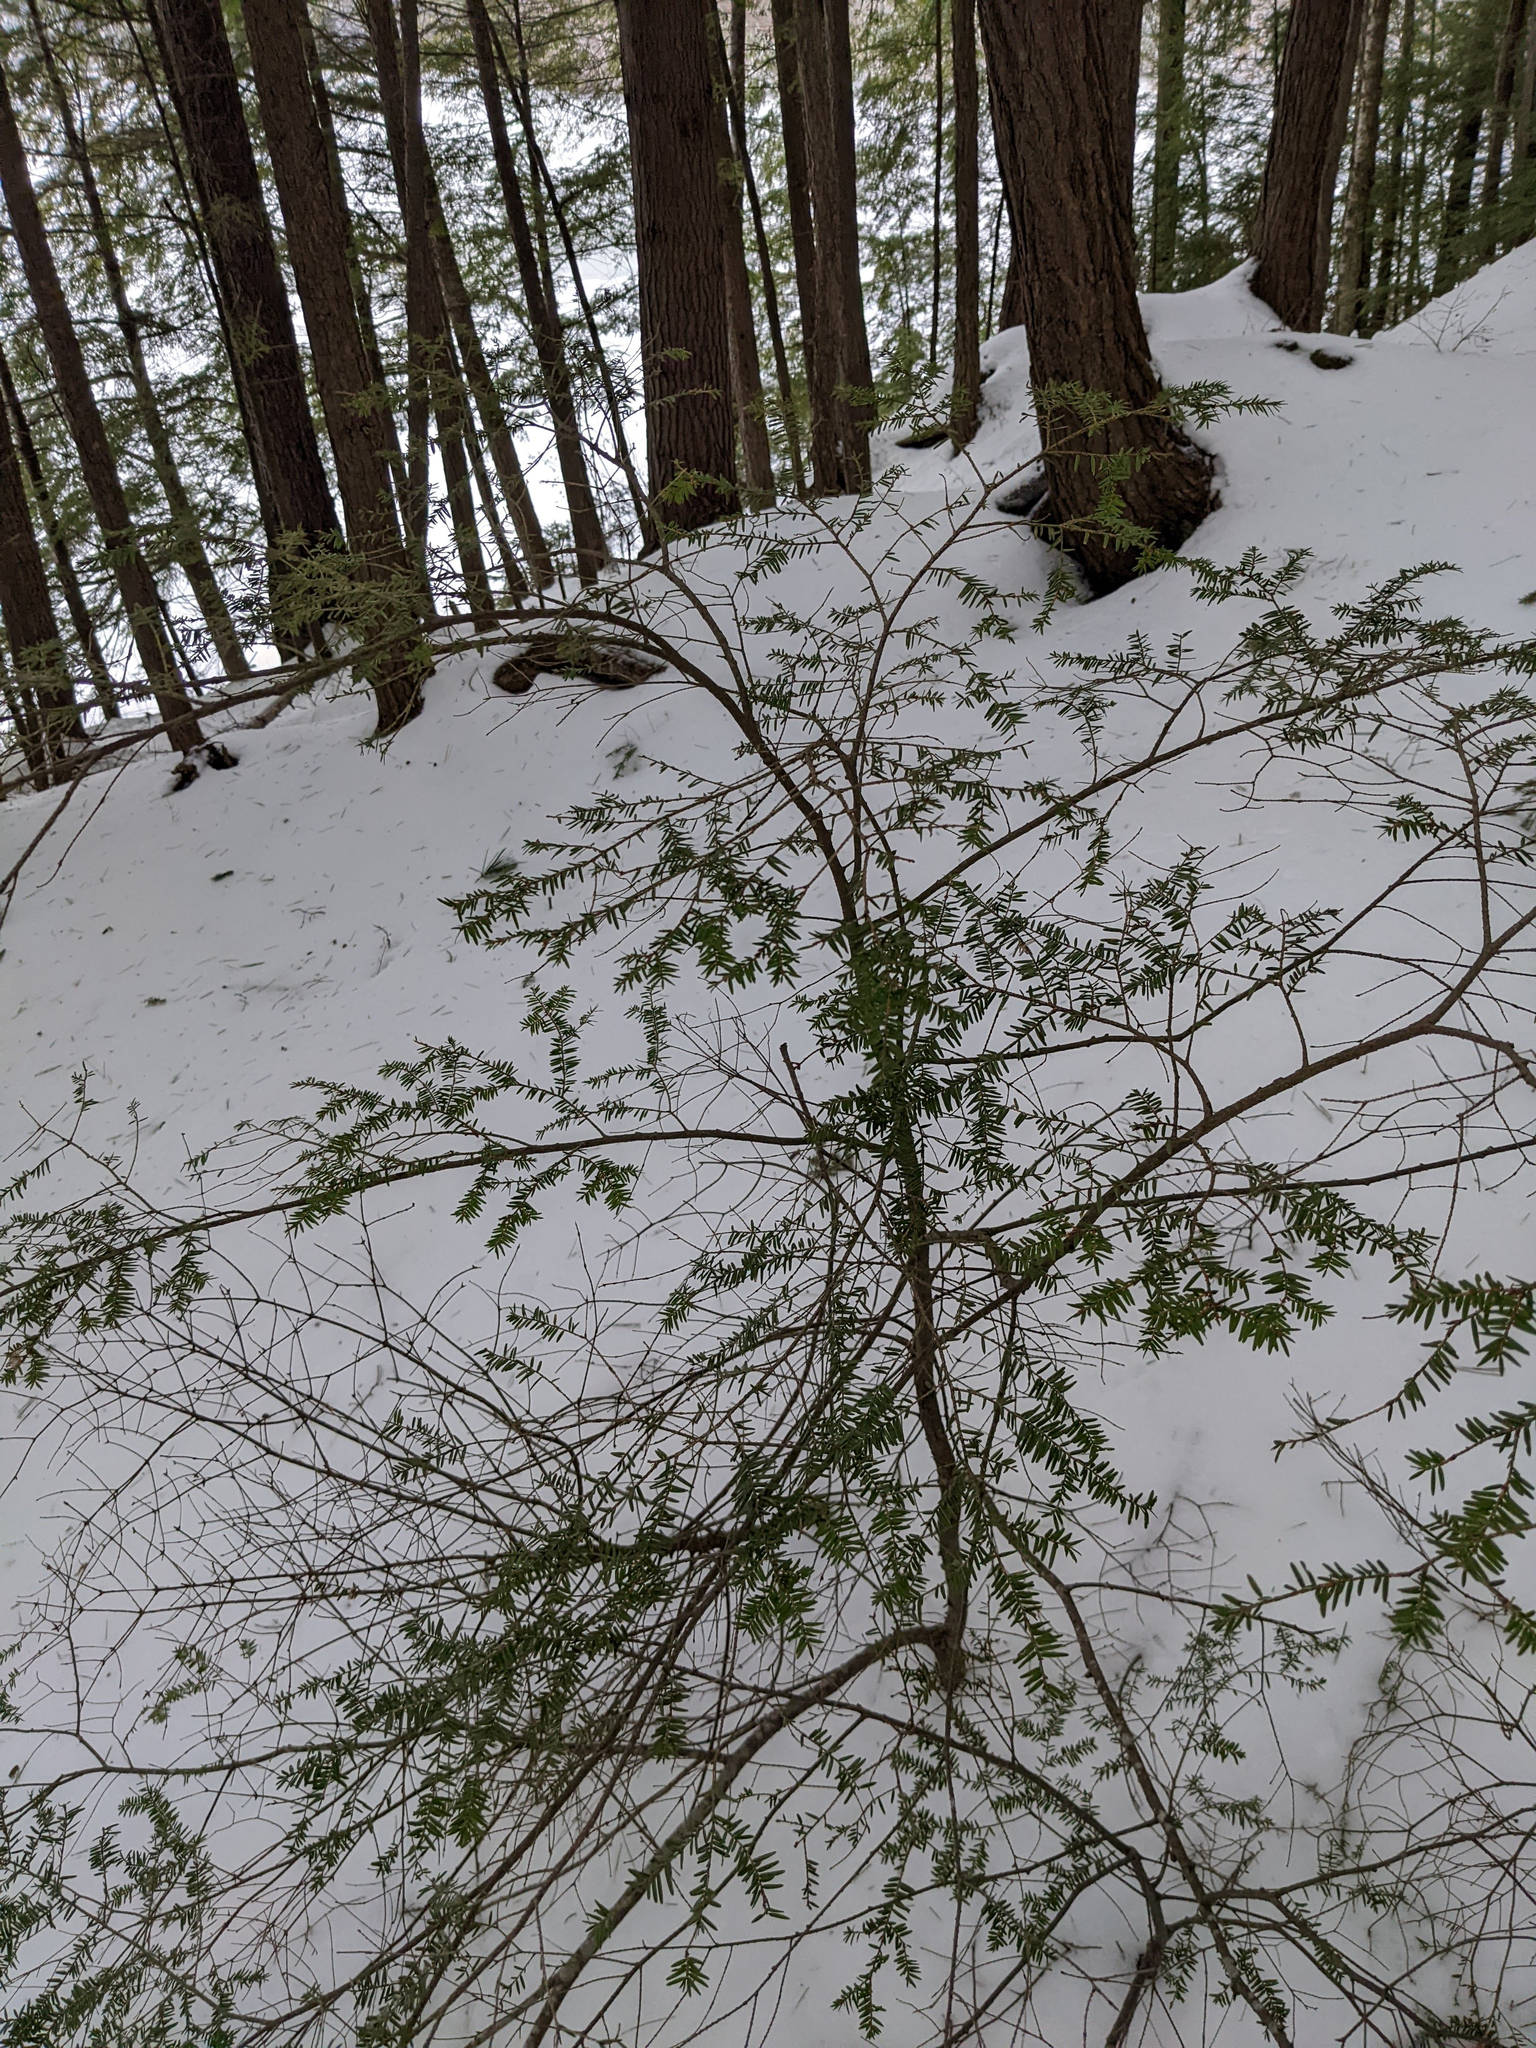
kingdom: Plantae
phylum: Tracheophyta
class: Pinopsida
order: Pinales
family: Pinaceae
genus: Tsuga
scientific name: Tsuga canadensis
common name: Eastern hemlock
